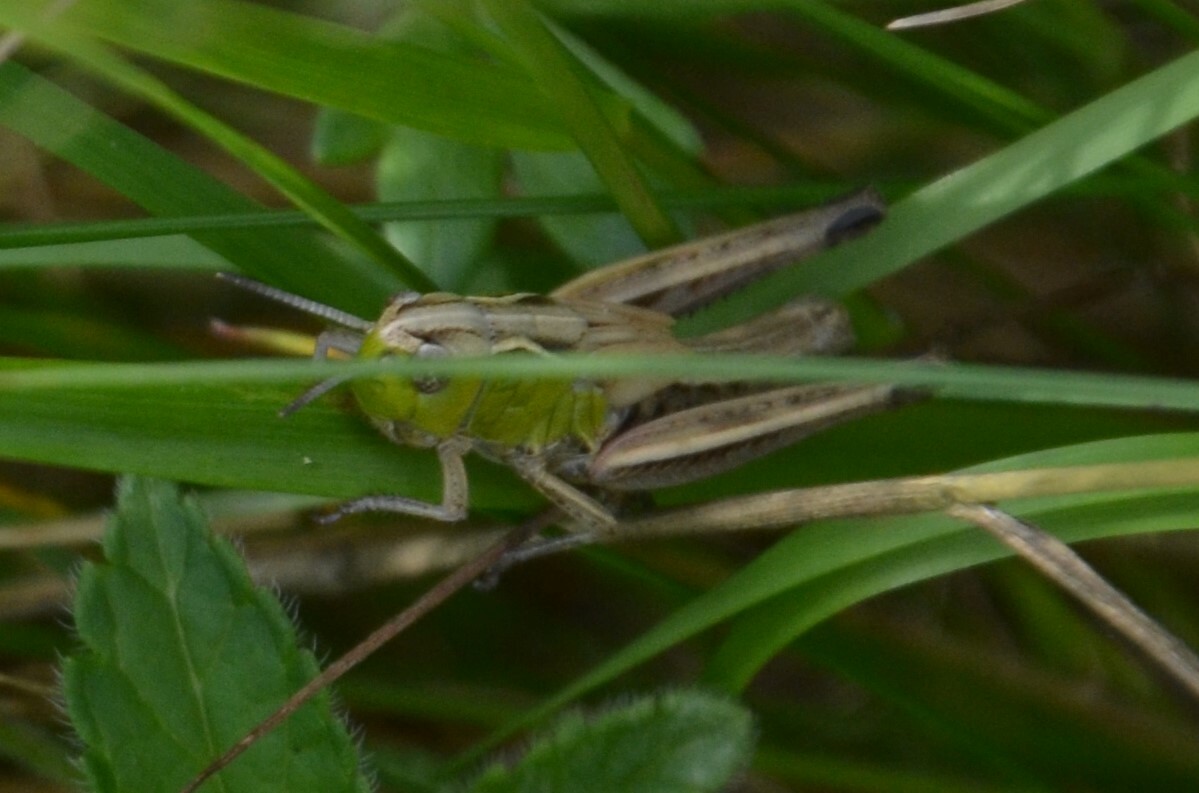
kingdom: Animalia
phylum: Arthropoda
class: Insecta
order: Orthoptera
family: Acrididae
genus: Stenobothrus
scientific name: Stenobothrus lineatus
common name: Stripe-winged grasshopper
